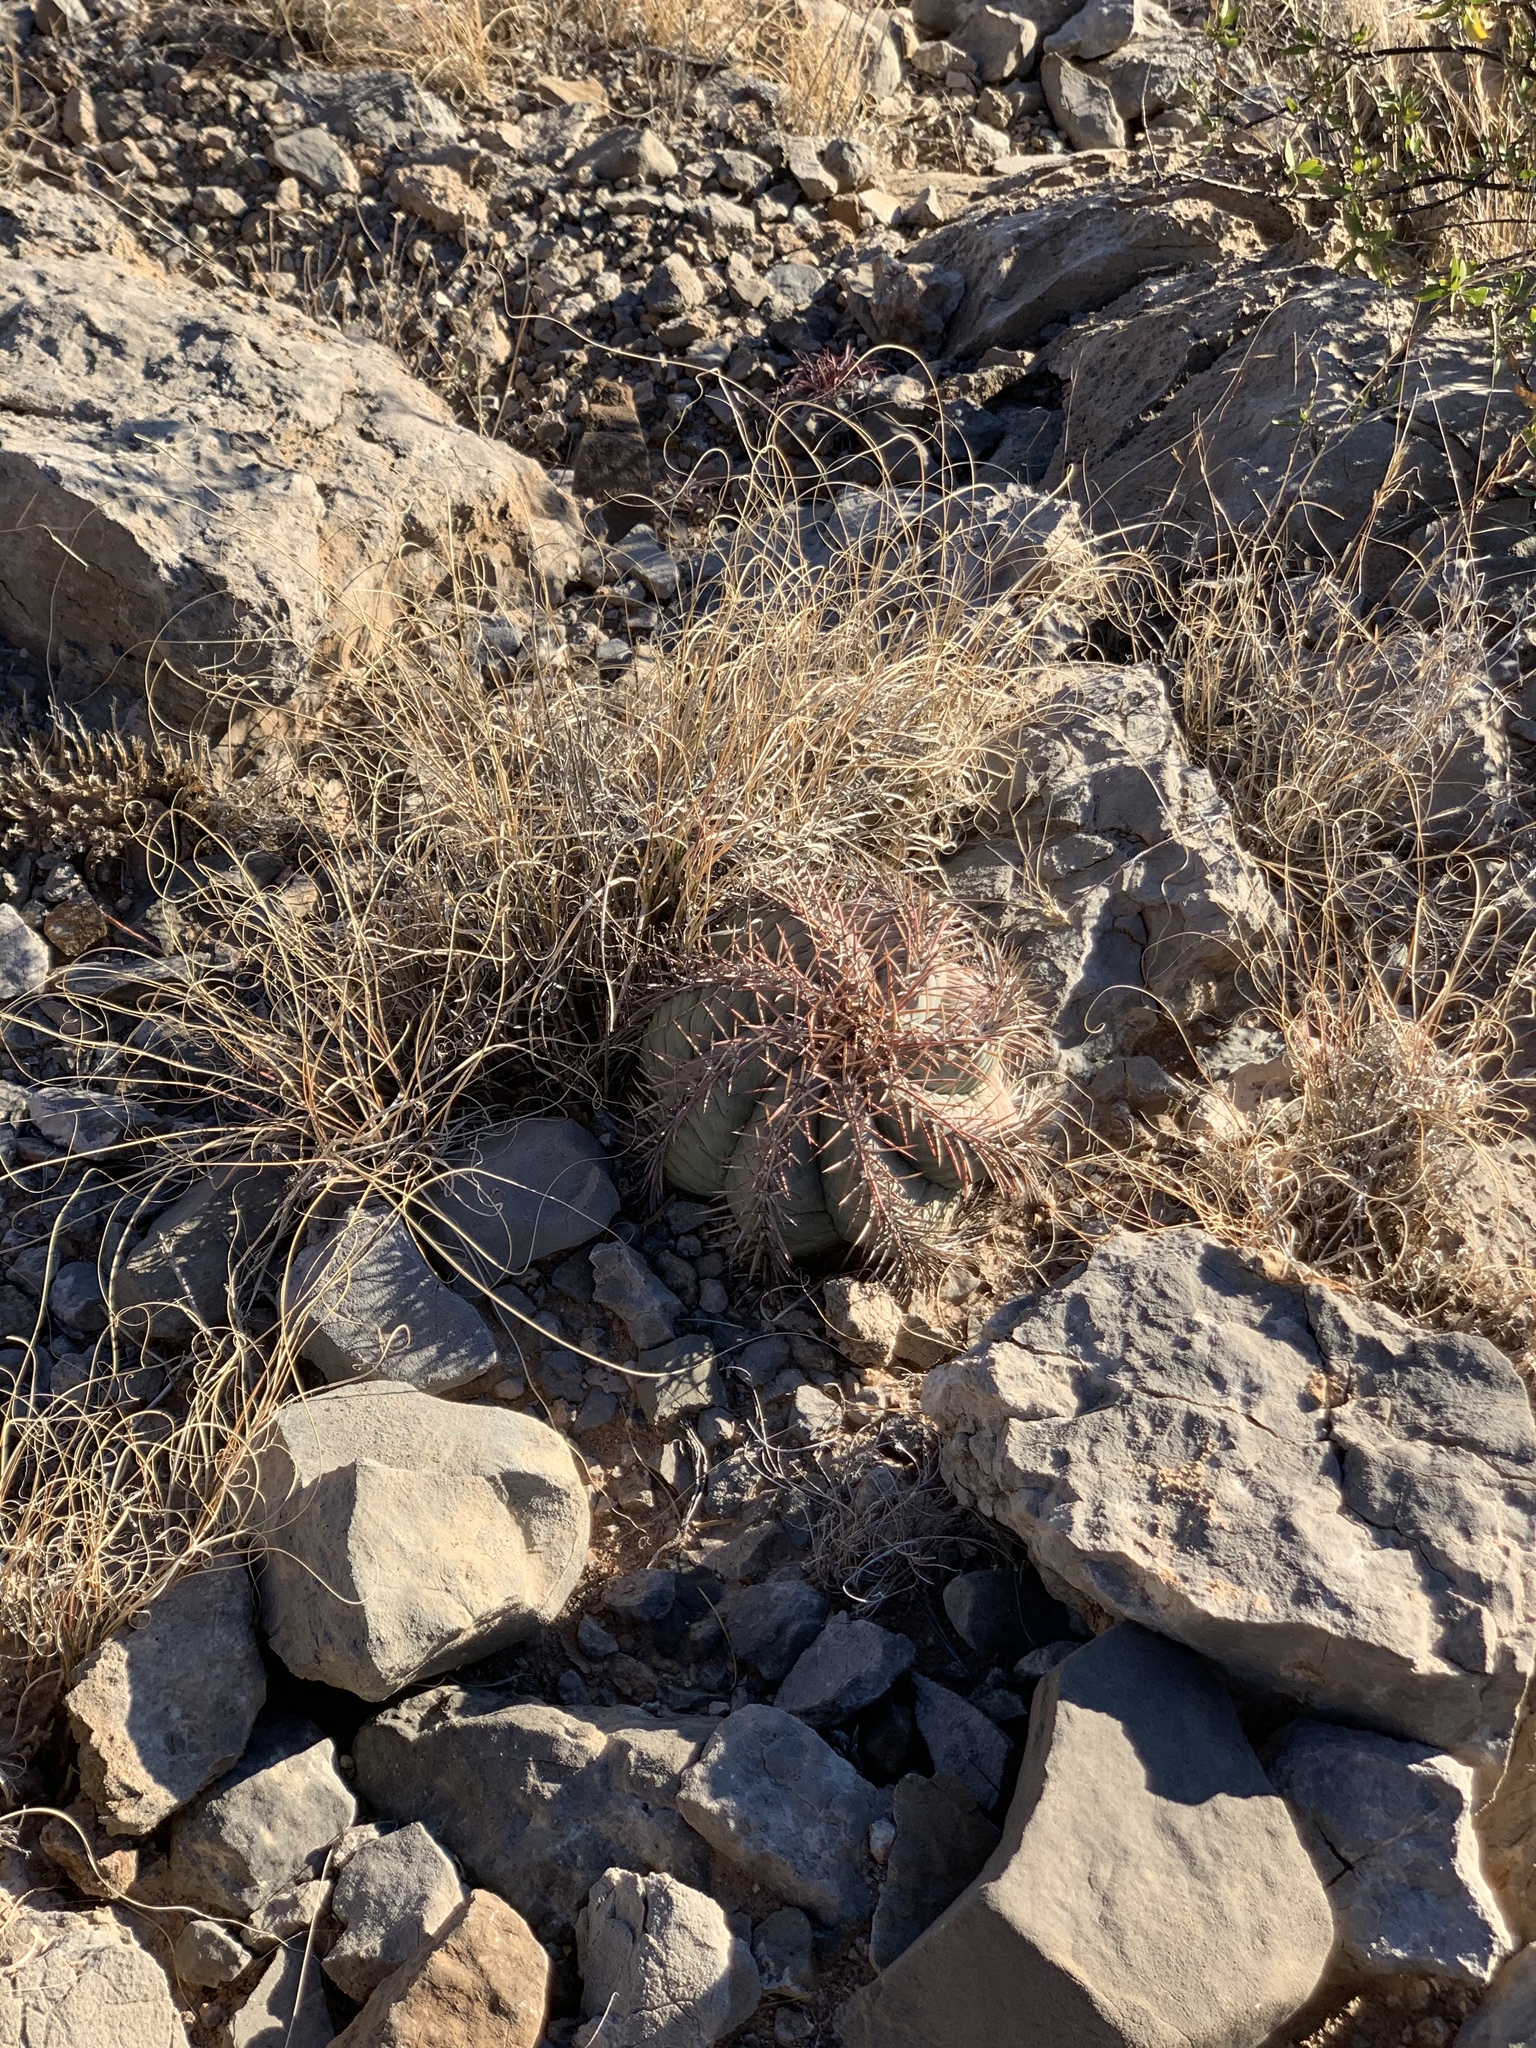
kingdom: Plantae
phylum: Tracheophyta
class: Magnoliopsida
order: Caryophyllales
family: Cactaceae
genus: Echinocactus
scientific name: Echinocactus horizonthalonius
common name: Devilshead
